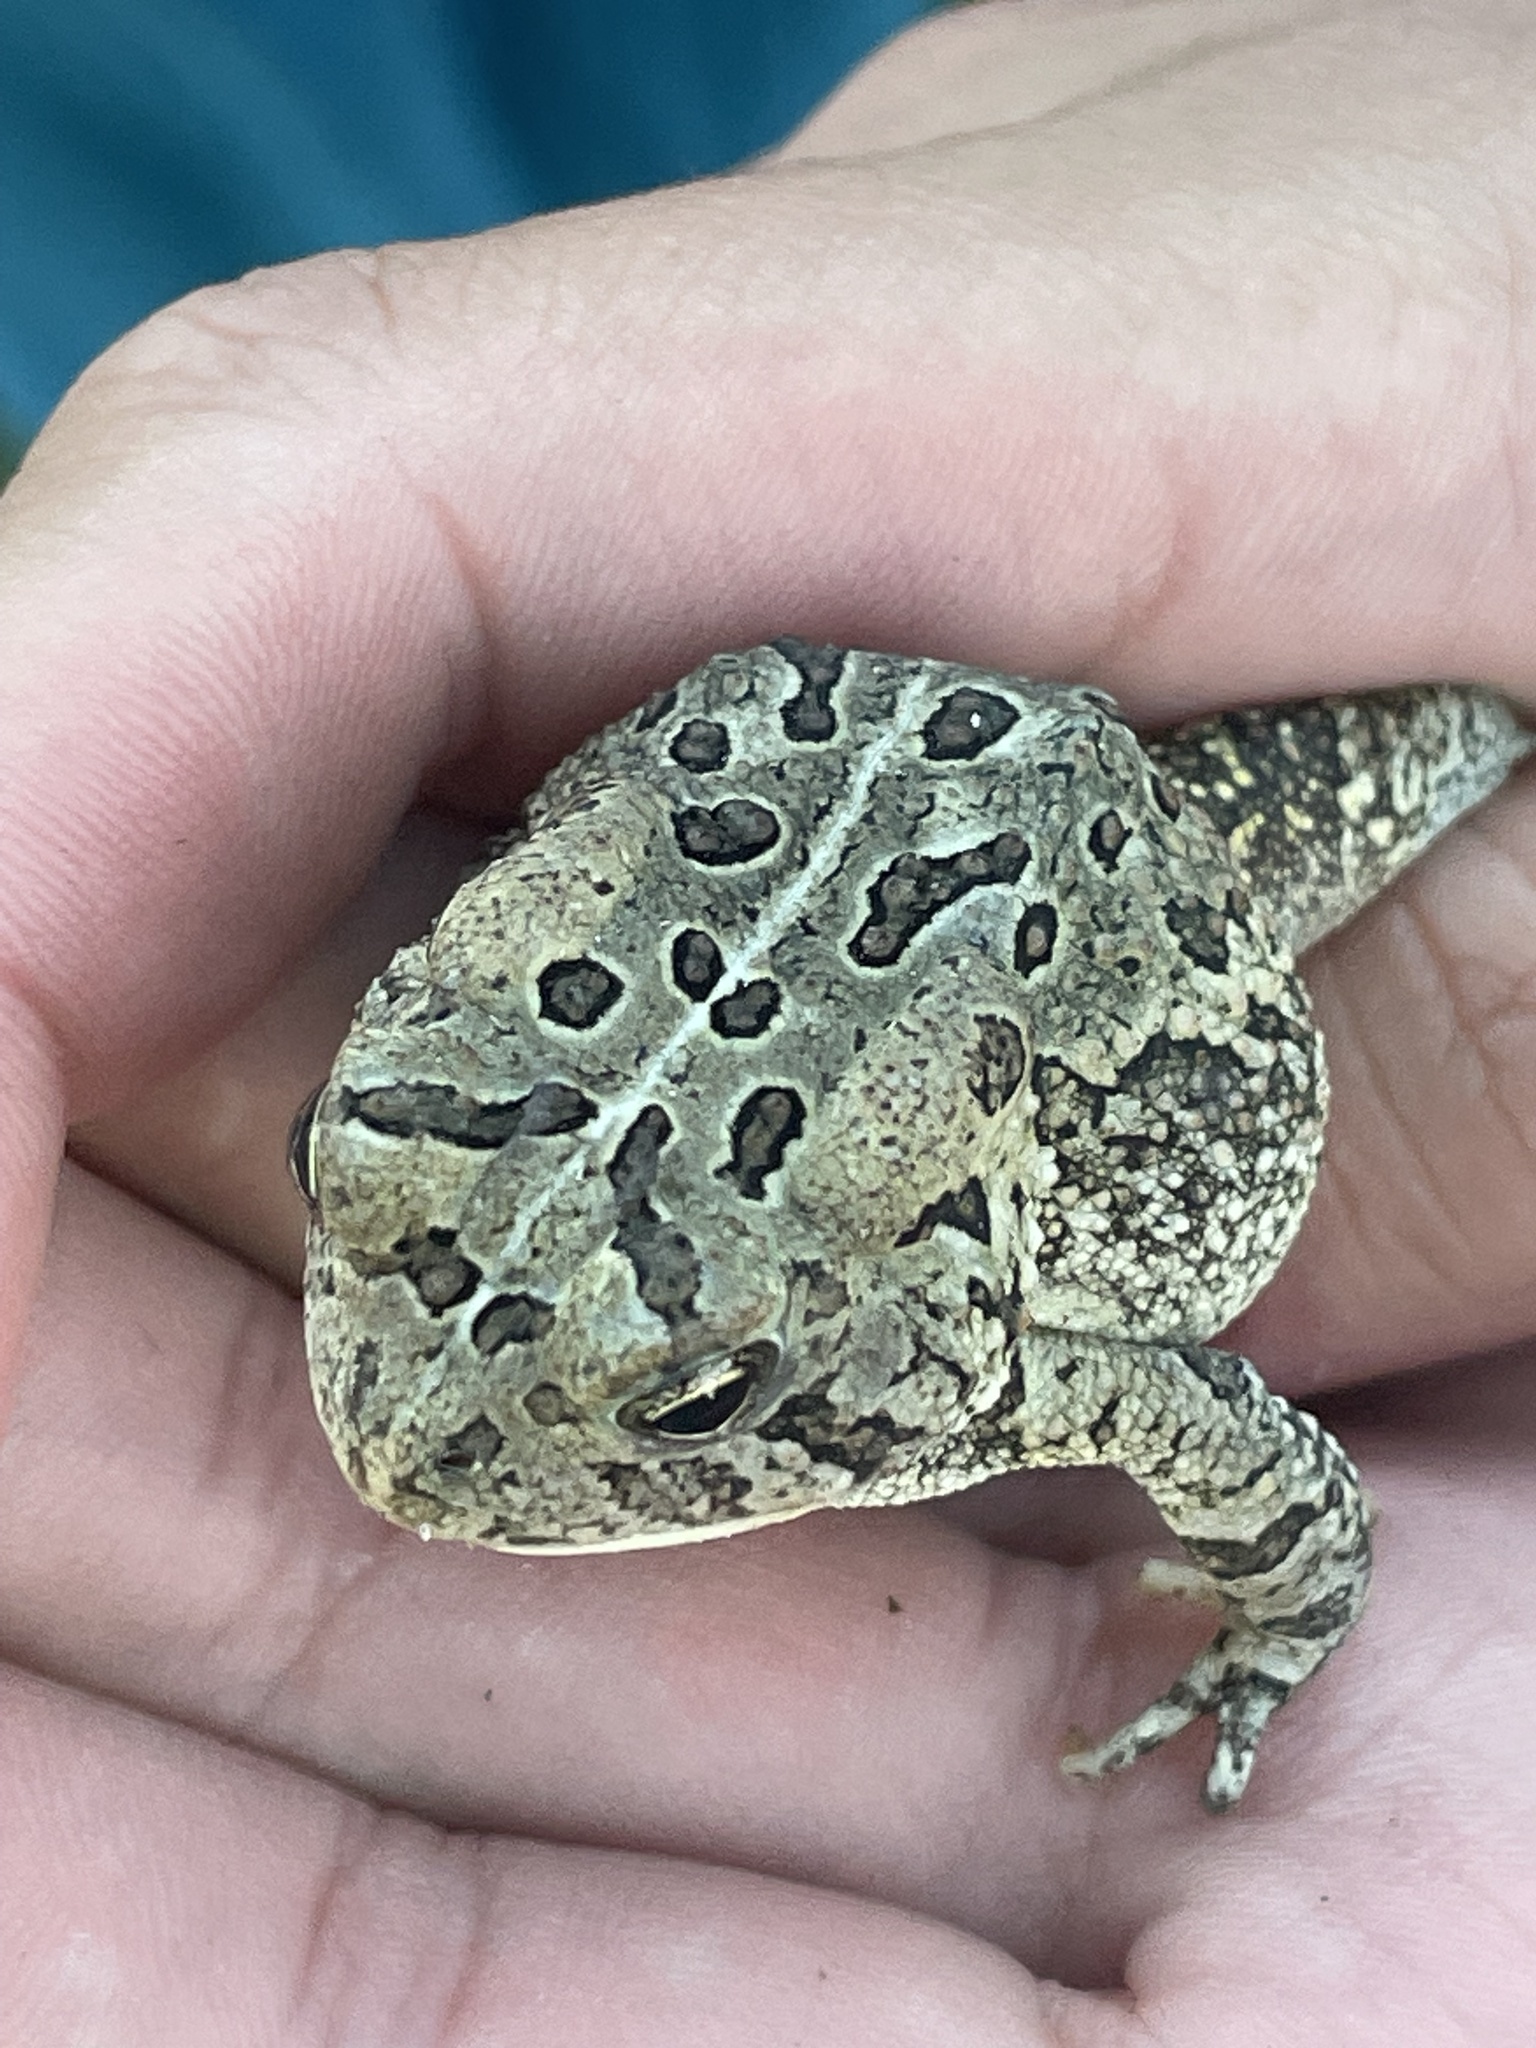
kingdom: Animalia
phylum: Chordata
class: Amphibia
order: Anura
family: Bufonidae
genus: Anaxyrus
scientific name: Anaxyrus fowleri
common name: Fowler's toad
